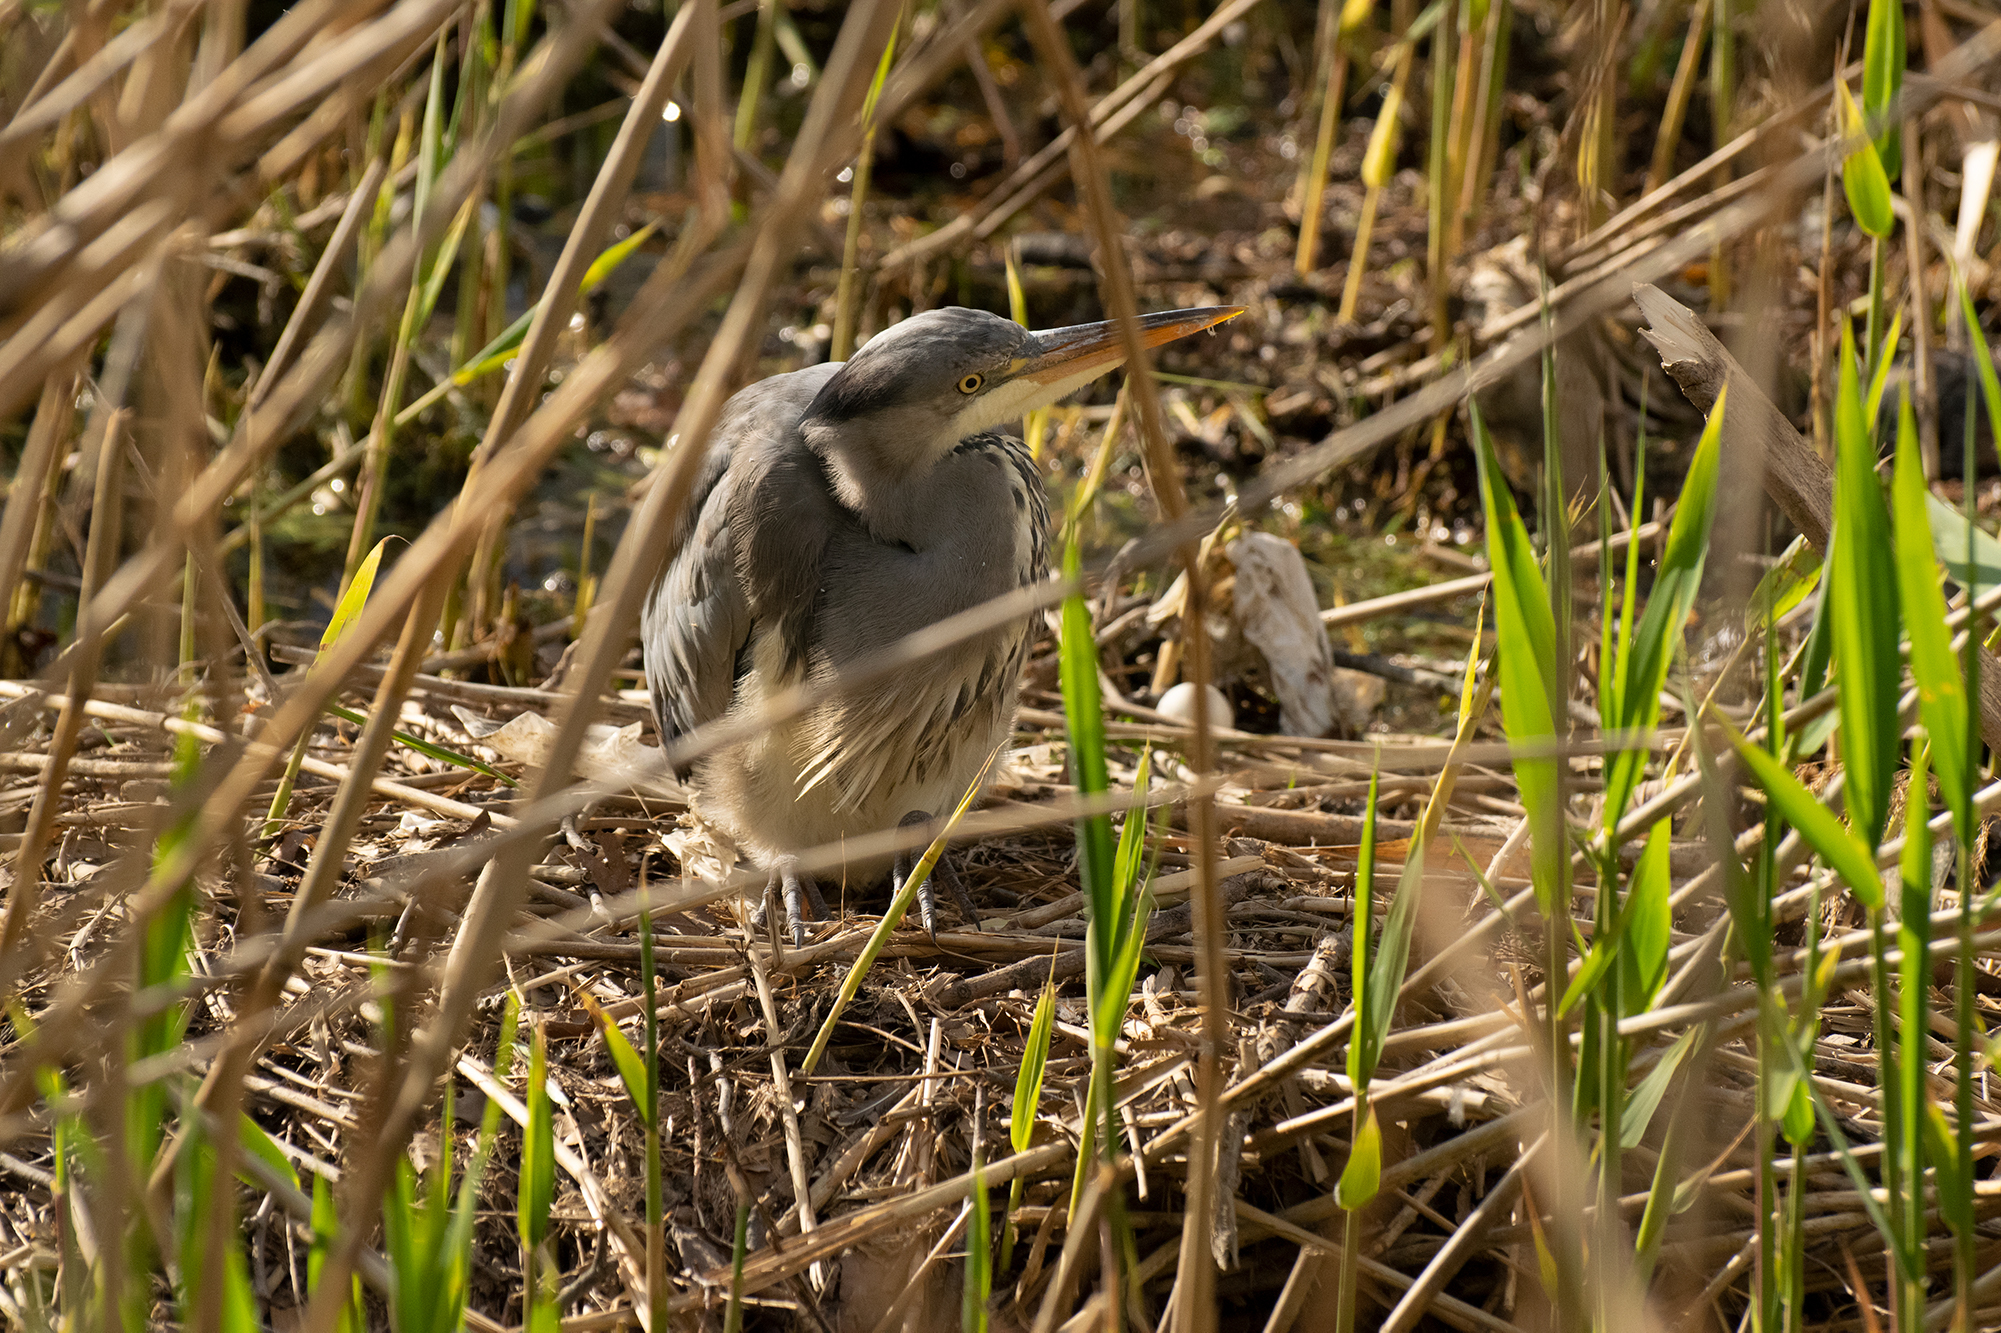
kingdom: Animalia
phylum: Chordata
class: Aves
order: Pelecaniformes
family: Ardeidae
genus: Ardea
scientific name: Ardea cinerea
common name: Grey heron
